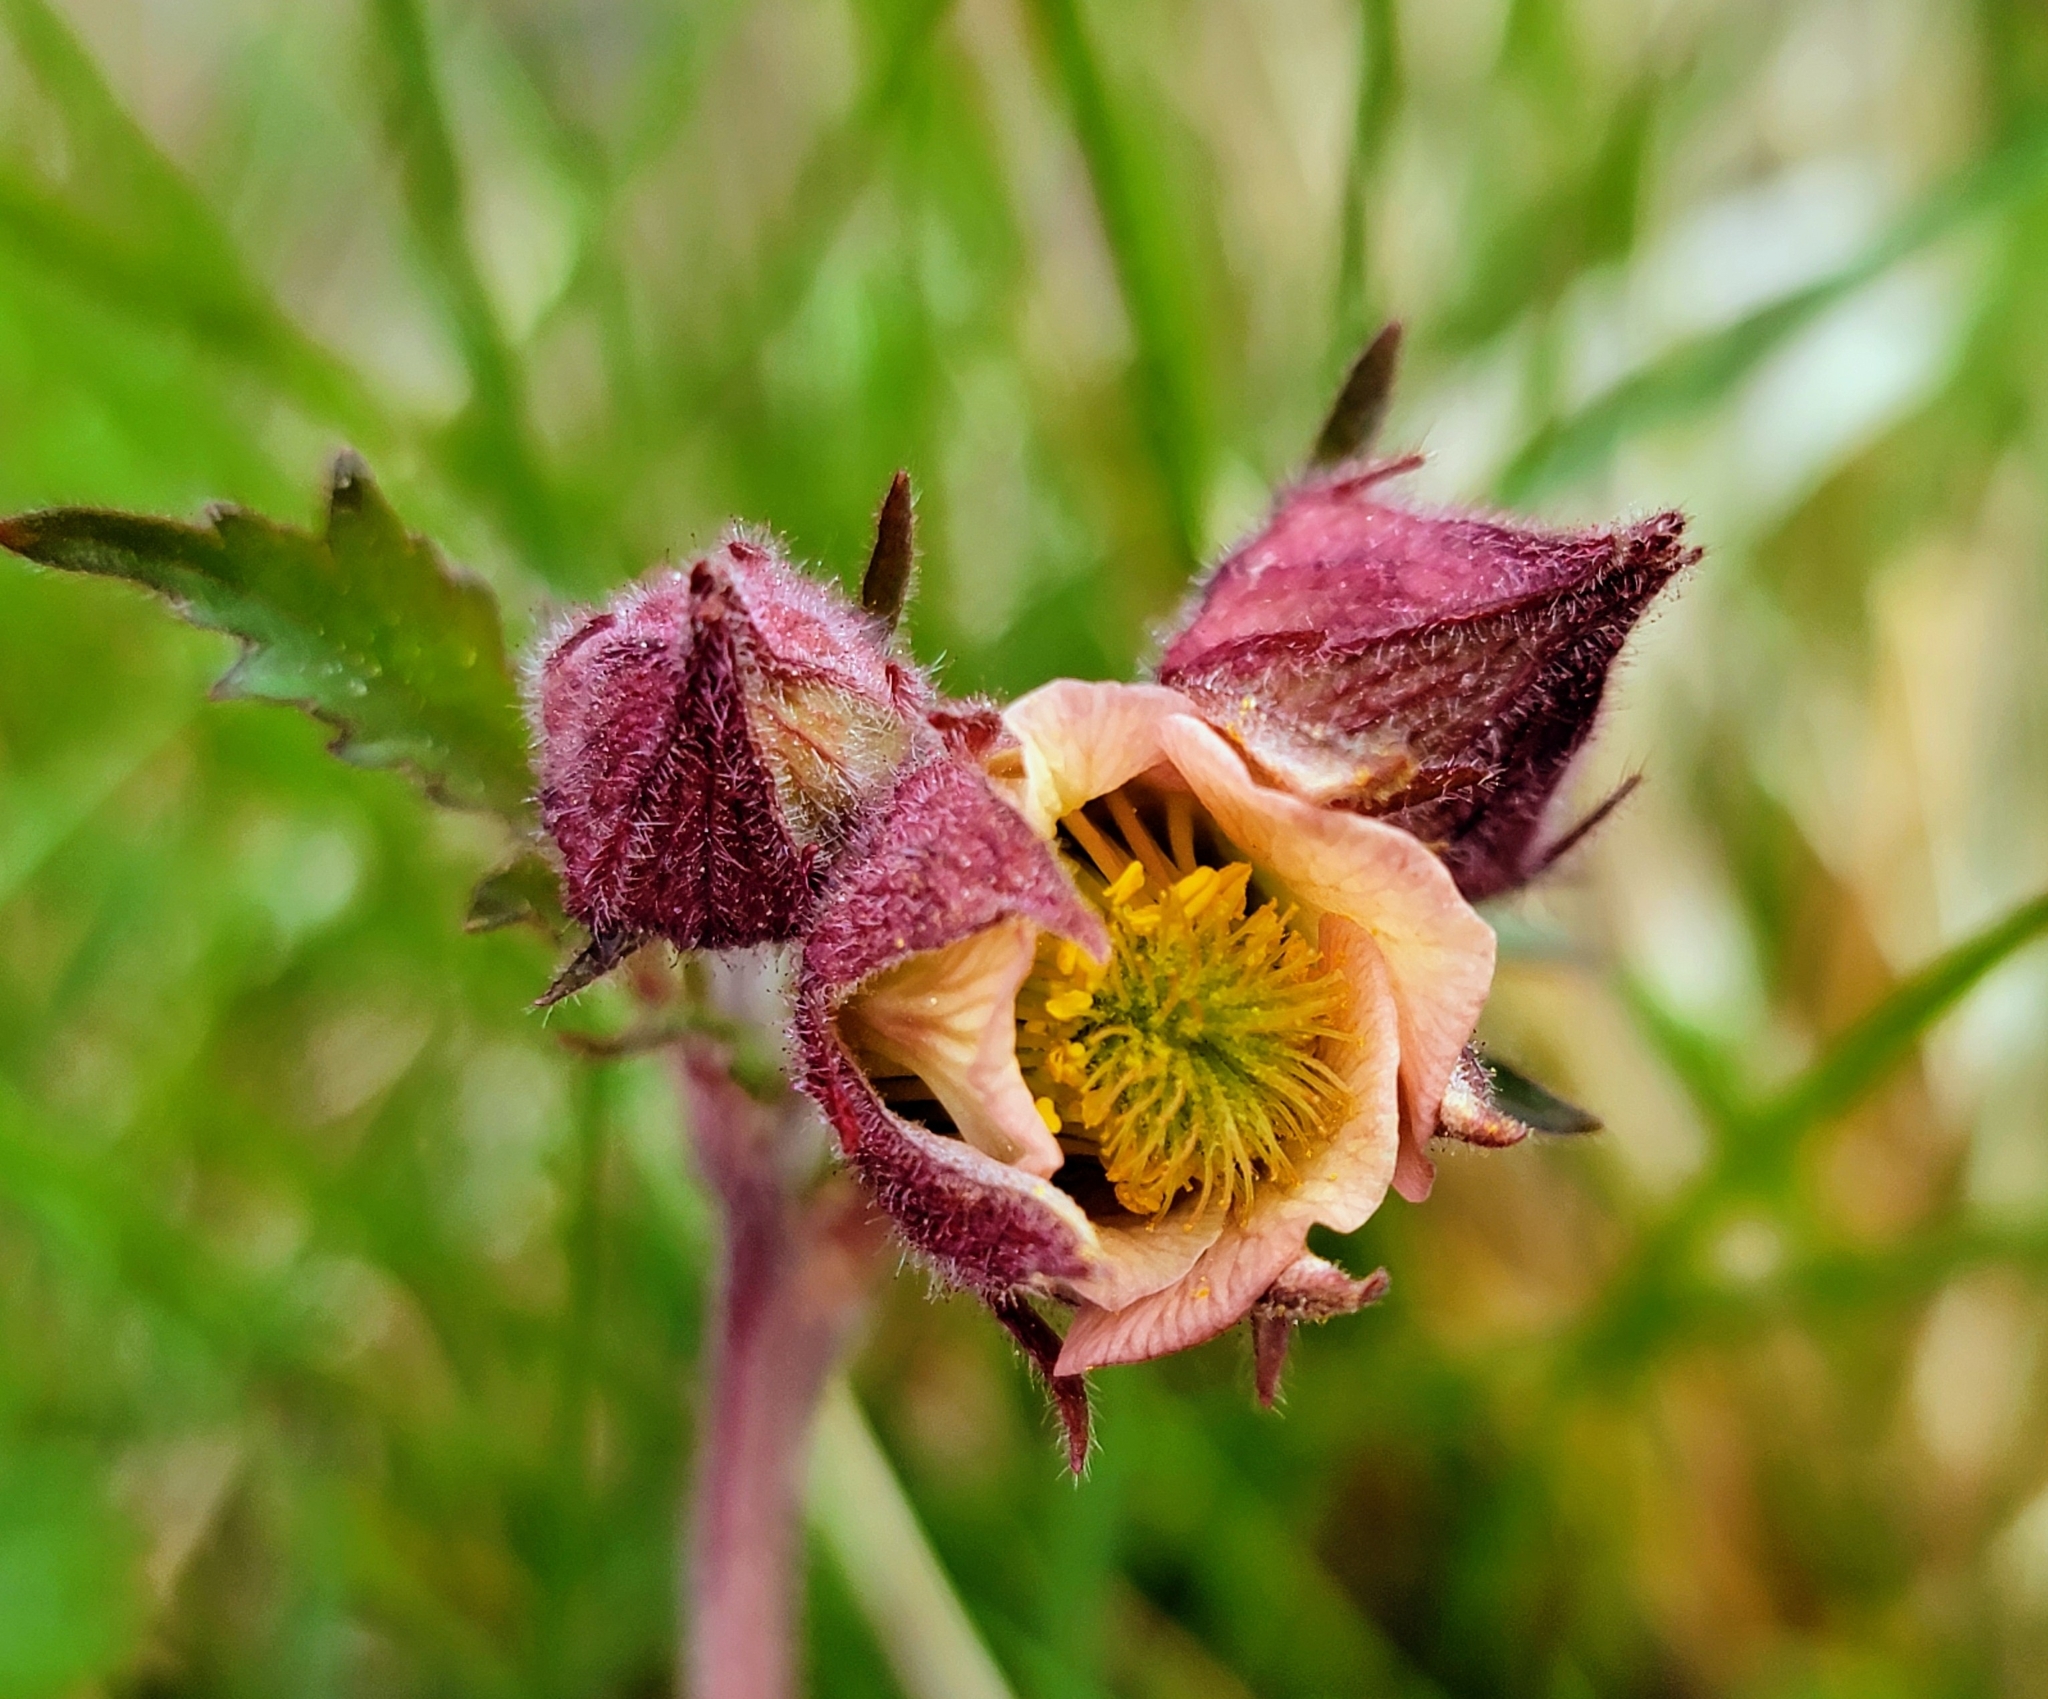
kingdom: Plantae
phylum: Tracheophyta
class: Magnoliopsida
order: Rosales
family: Rosaceae
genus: Geum
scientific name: Geum rivale
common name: Water avens
